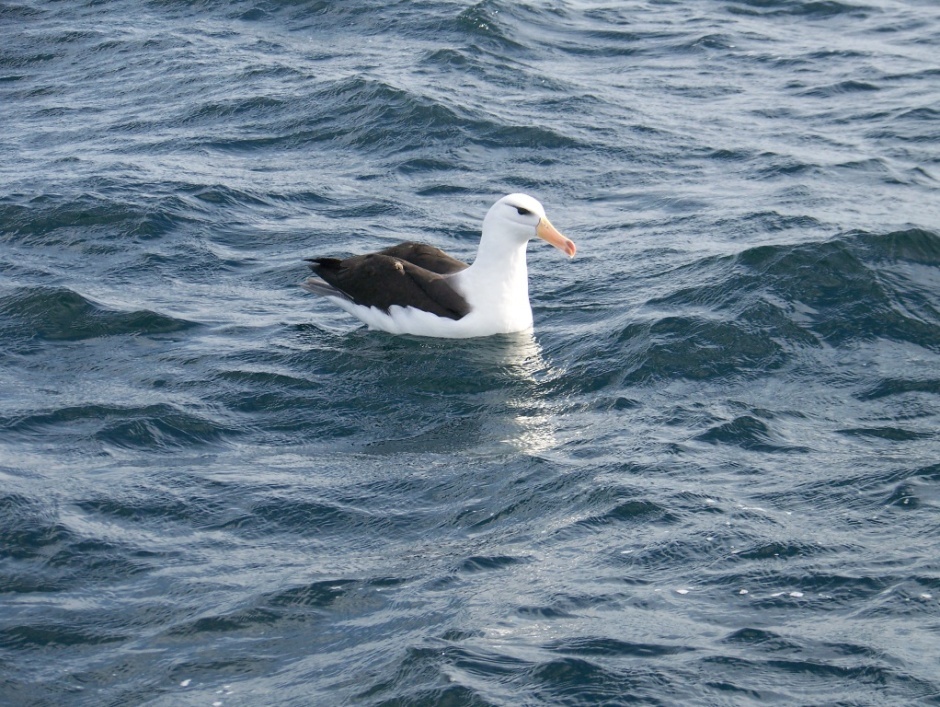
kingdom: Animalia
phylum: Chordata
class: Aves
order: Procellariiformes
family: Diomedeidae
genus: Thalassarche
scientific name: Thalassarche melanophris
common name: Black-browed albatross
